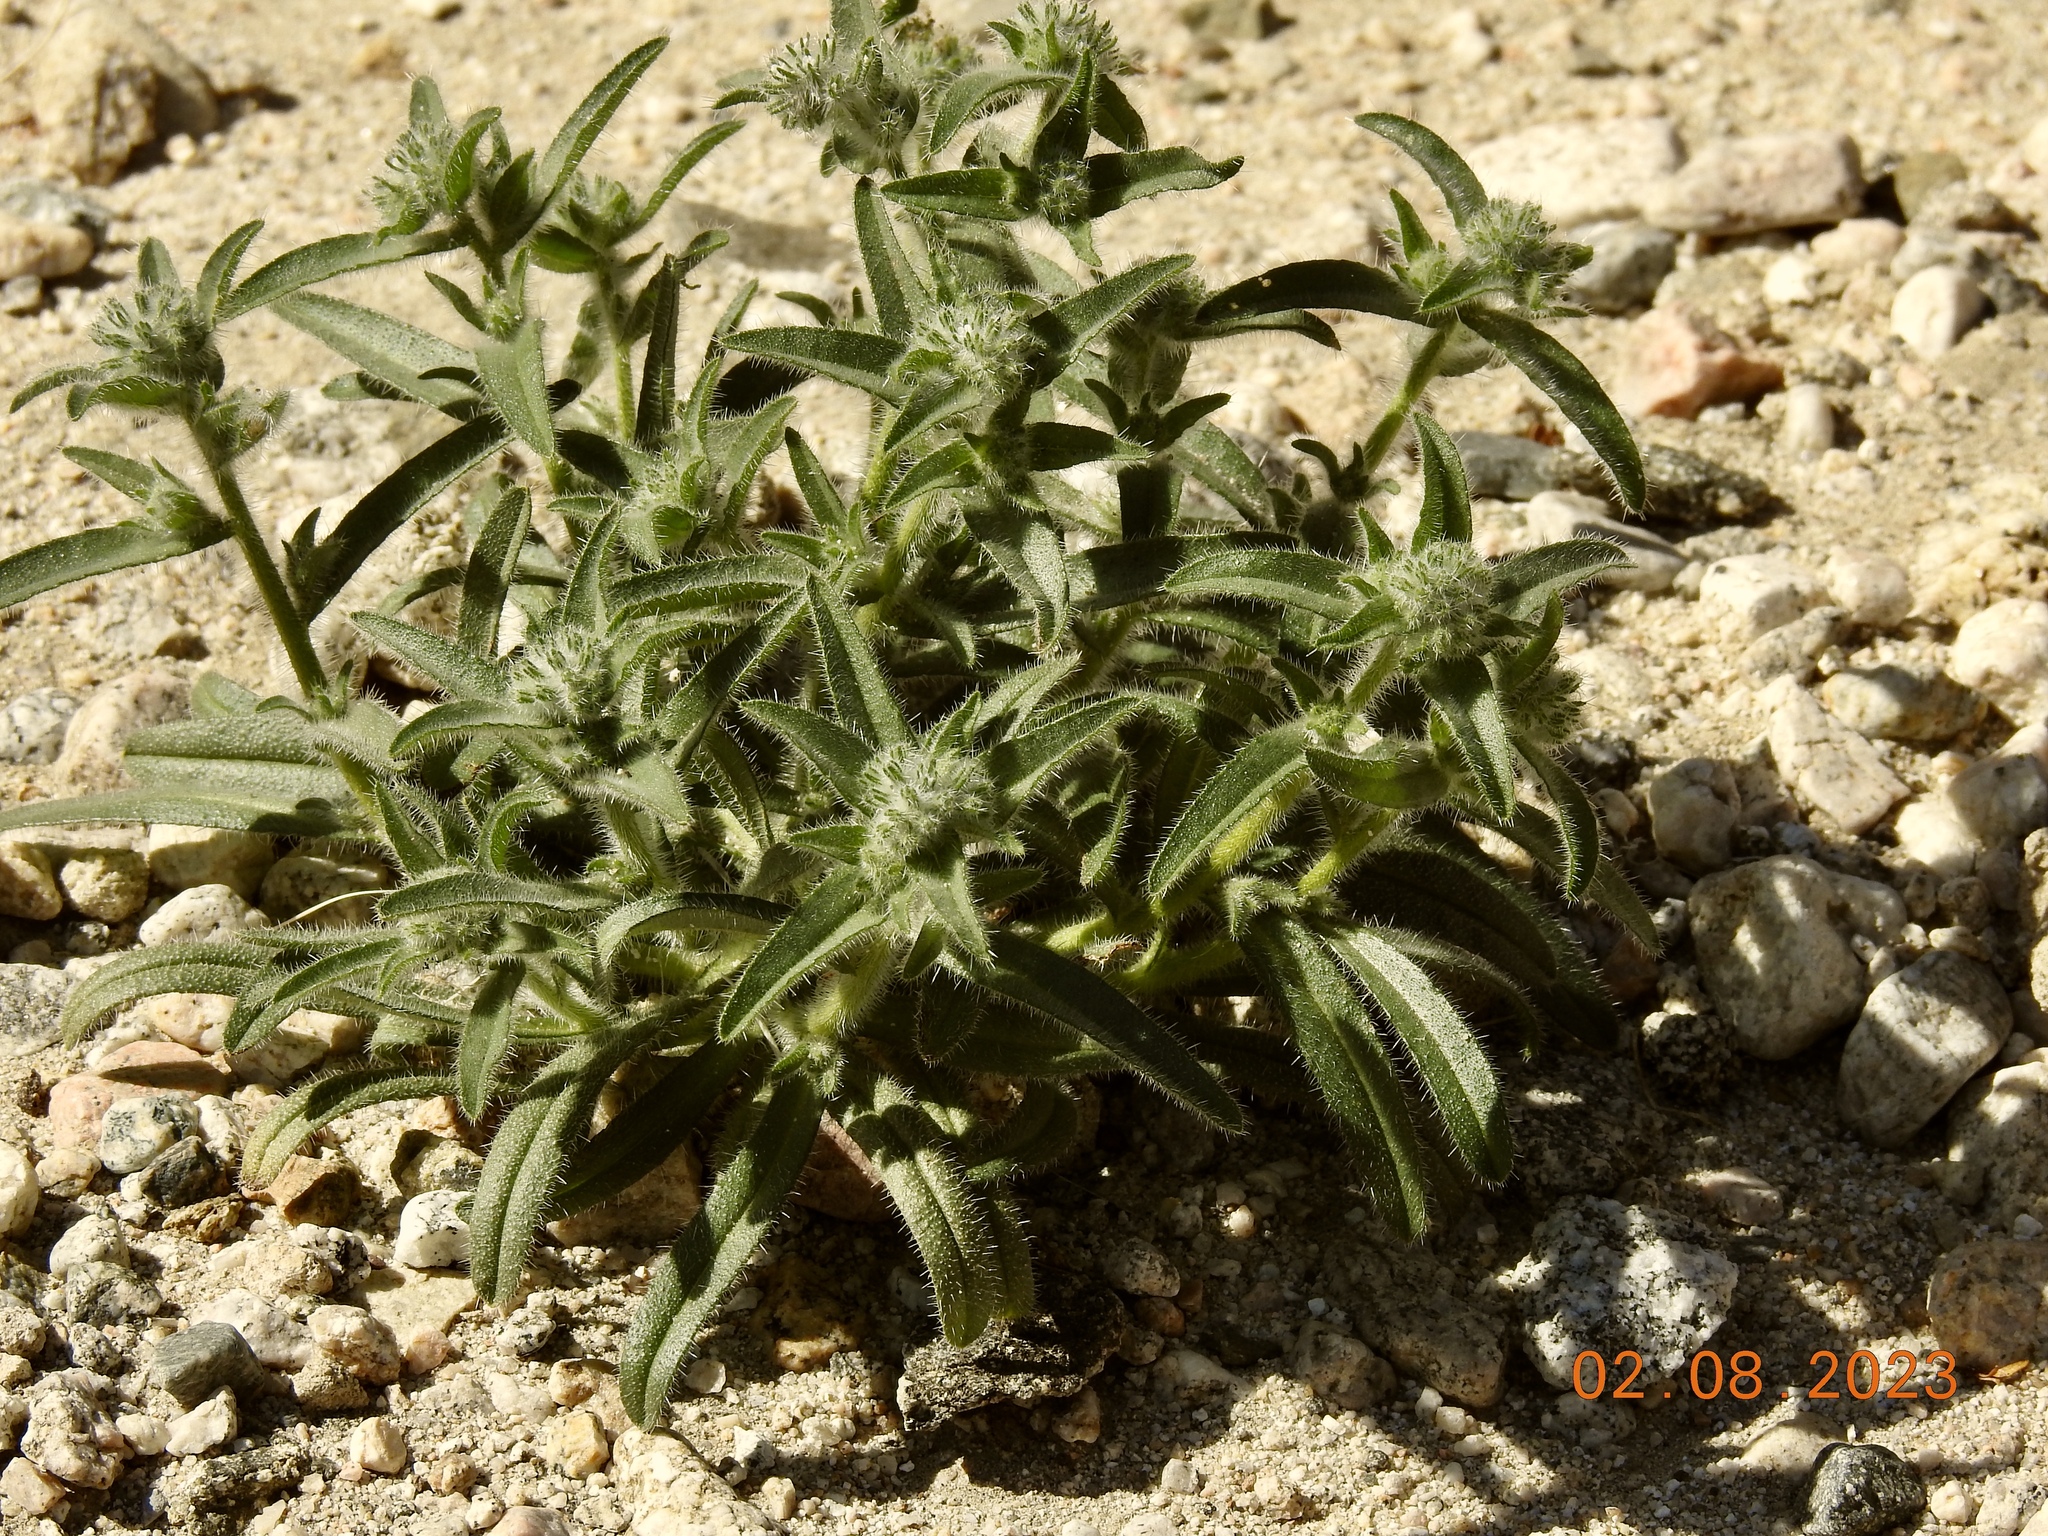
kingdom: Plantae
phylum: Tracheophyta
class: Magnoliopsida
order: Boraginales
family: Boraginaceae
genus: Cryptantha
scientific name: Cryptantha barbigera
